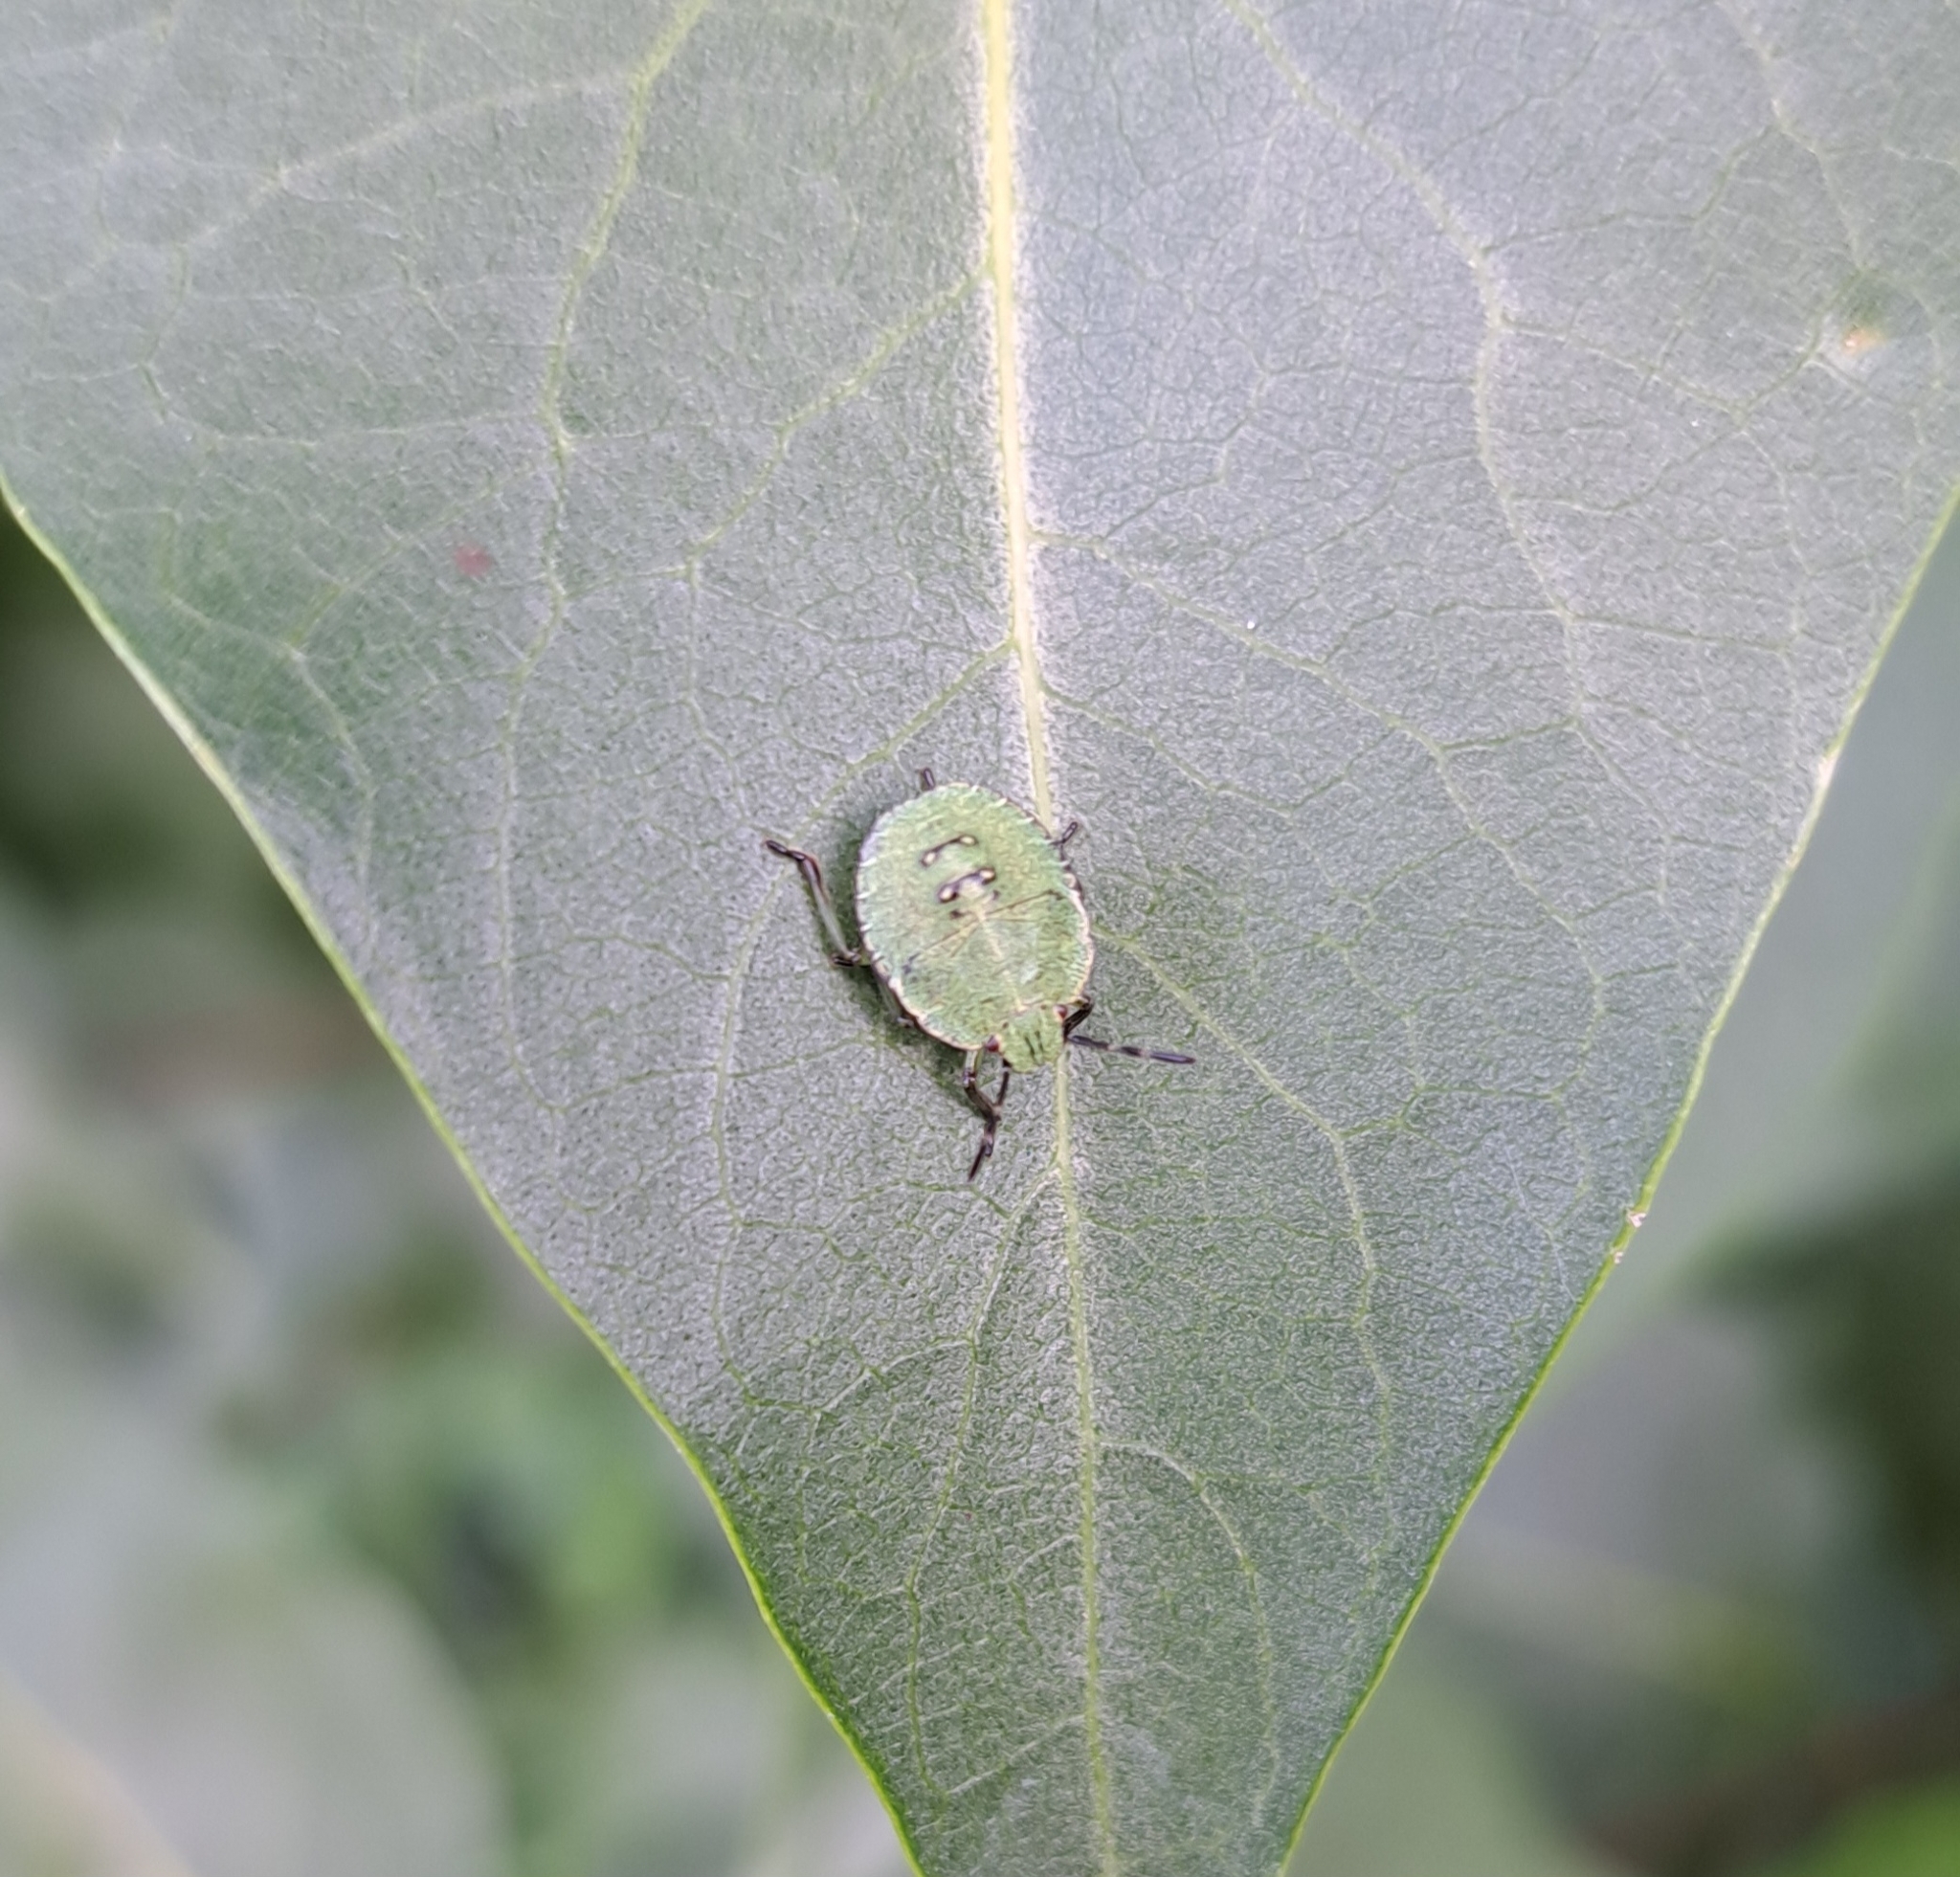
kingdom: Animalia
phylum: Arthropoda
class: Insecta
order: Hemiptera
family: Pentatomidae
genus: Palomena
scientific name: Palomena prasina
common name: Green shieldbug
